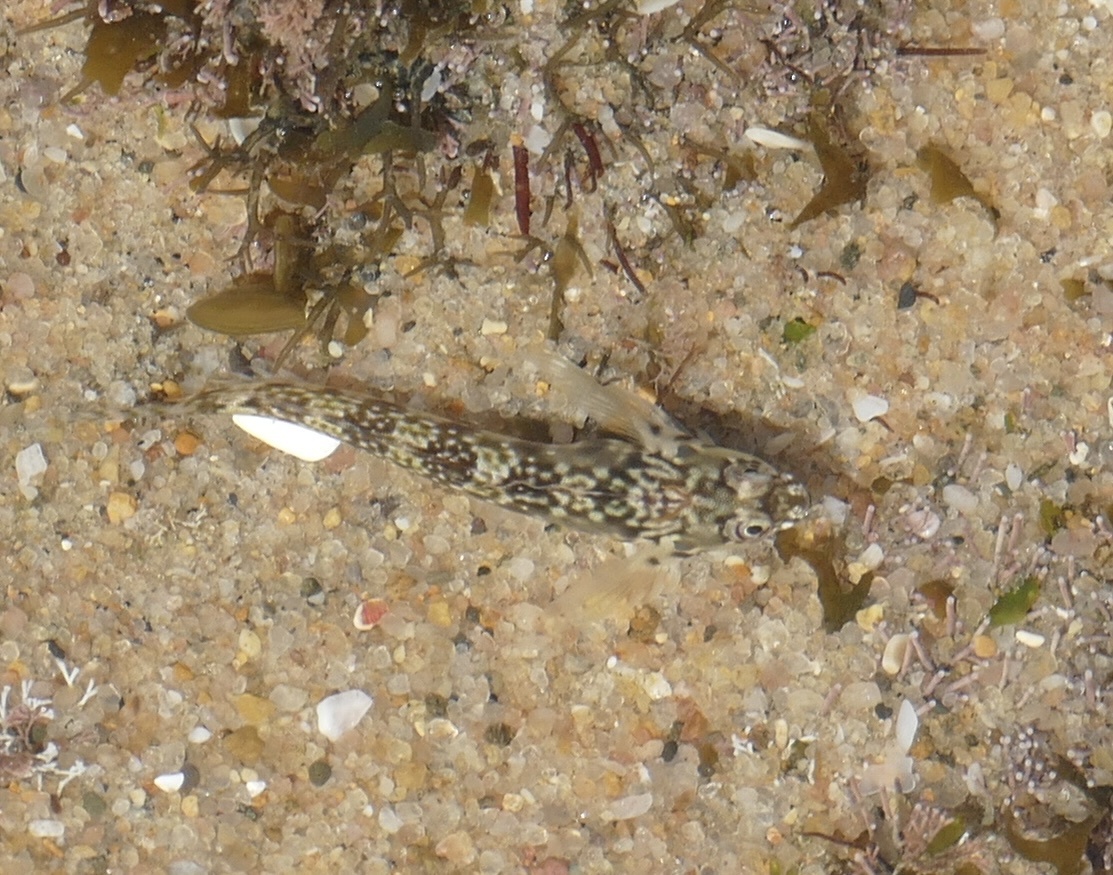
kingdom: Animalia
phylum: Chordata
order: Perciformes
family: Blenniidae
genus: Antennablennius
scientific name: Antennablennius bifilum
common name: Horned rockskipper
